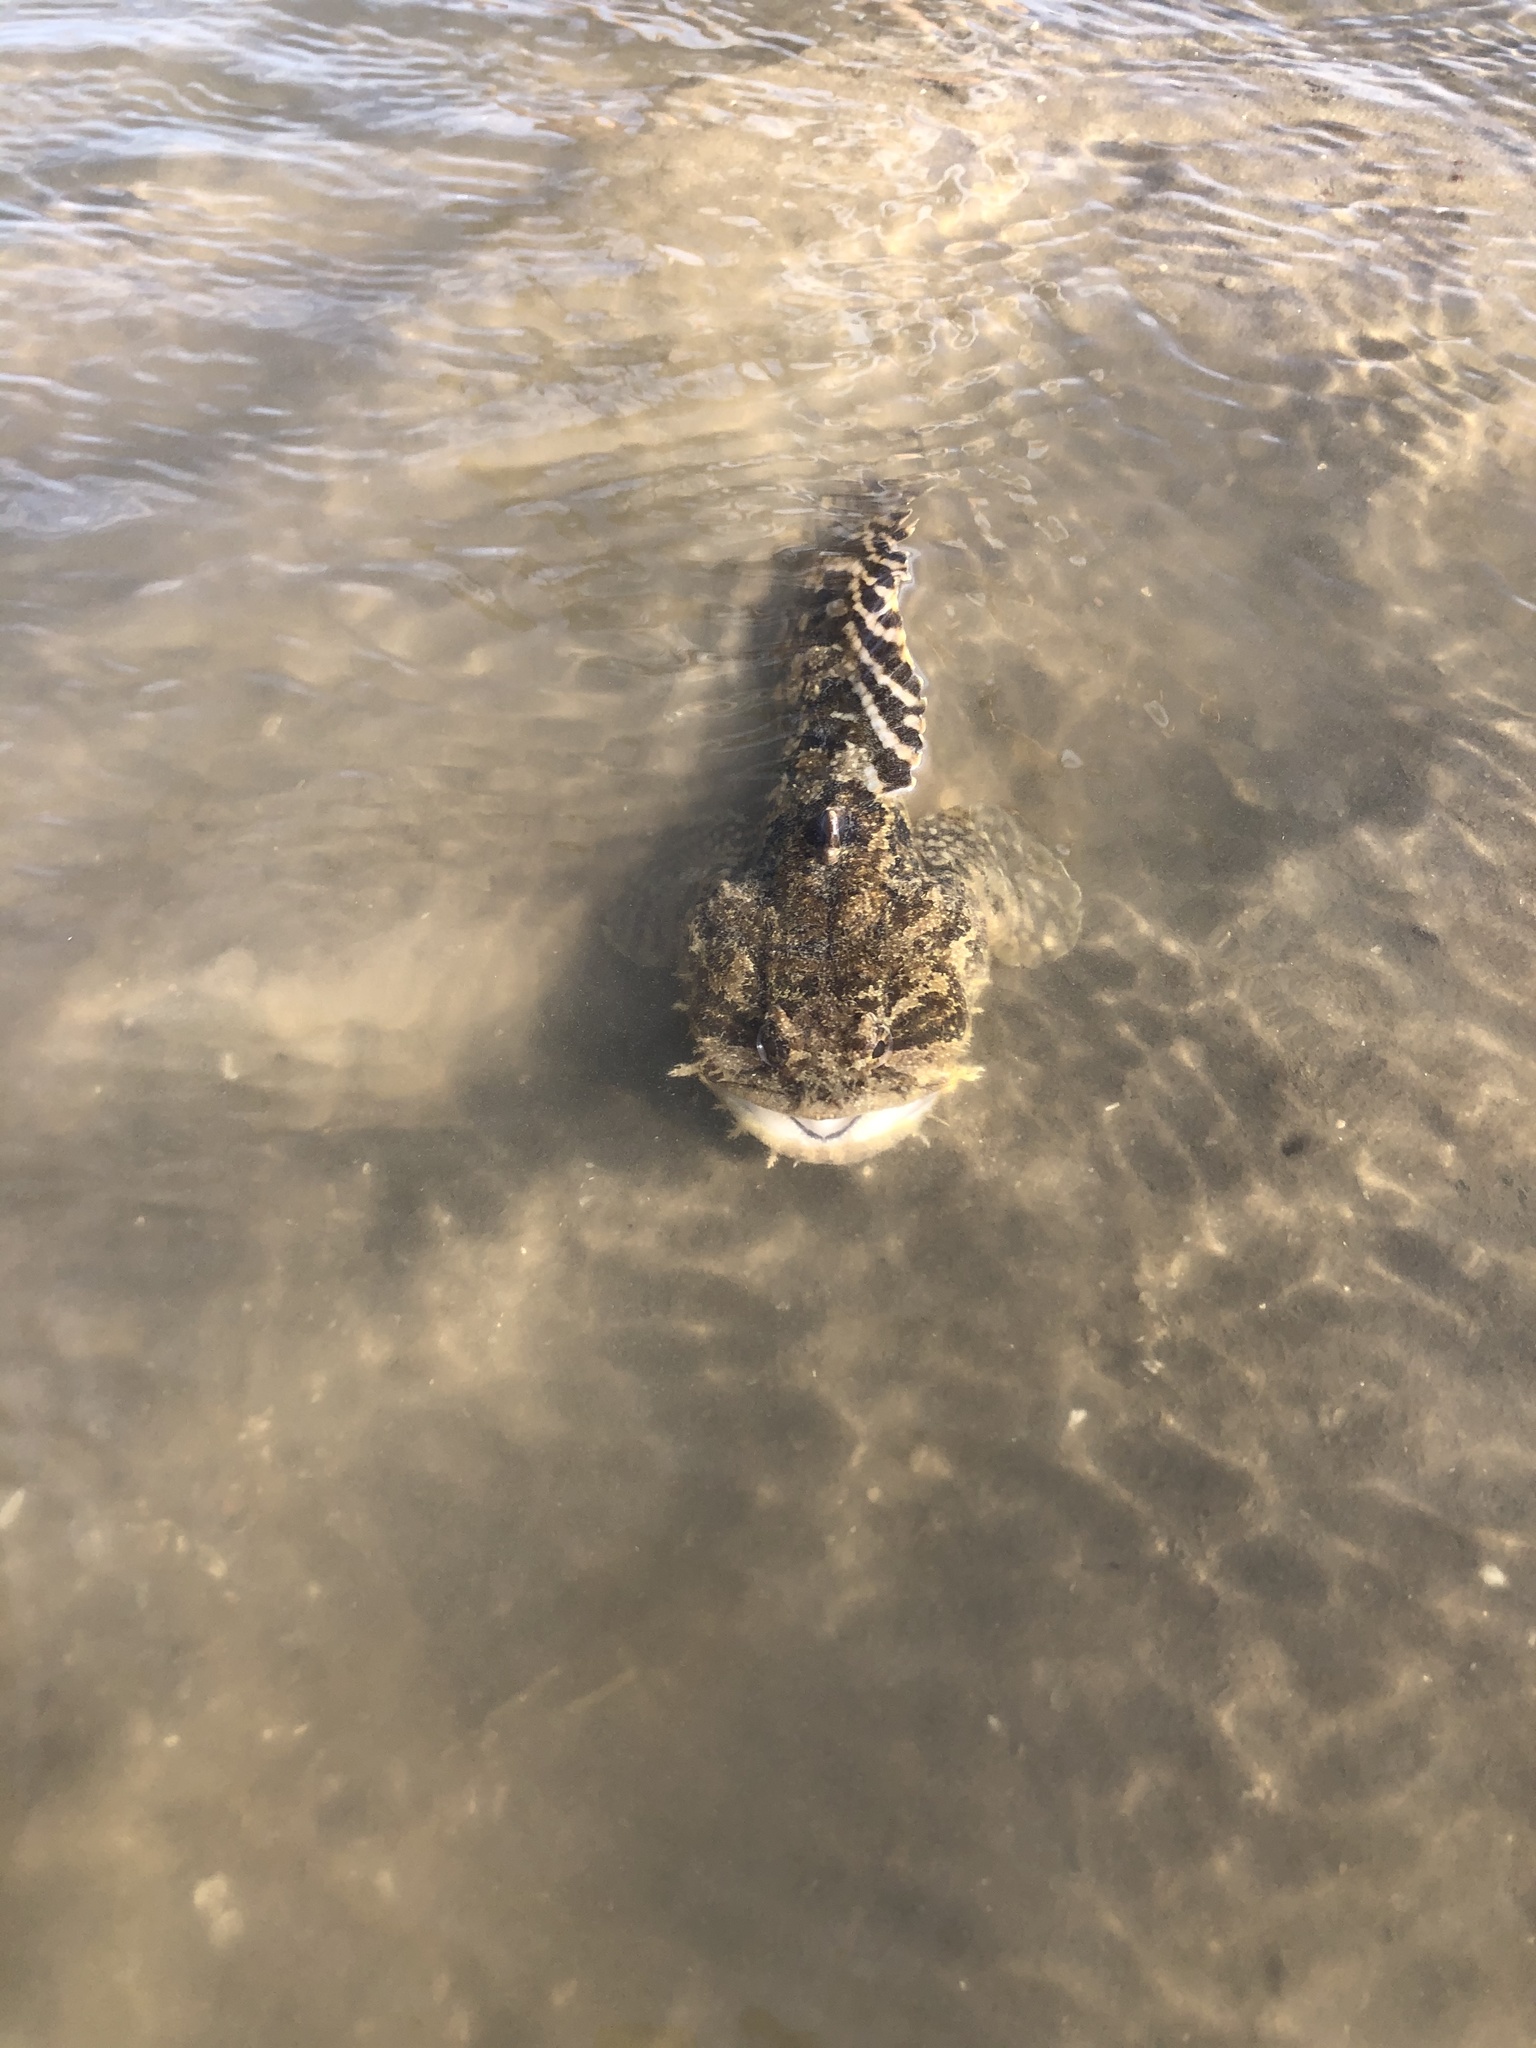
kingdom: Animalia
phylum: Chordata
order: Batrachoidiformes
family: Batrachoididae
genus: Opsanus
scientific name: Opsanus beta
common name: Gulf toadfish
